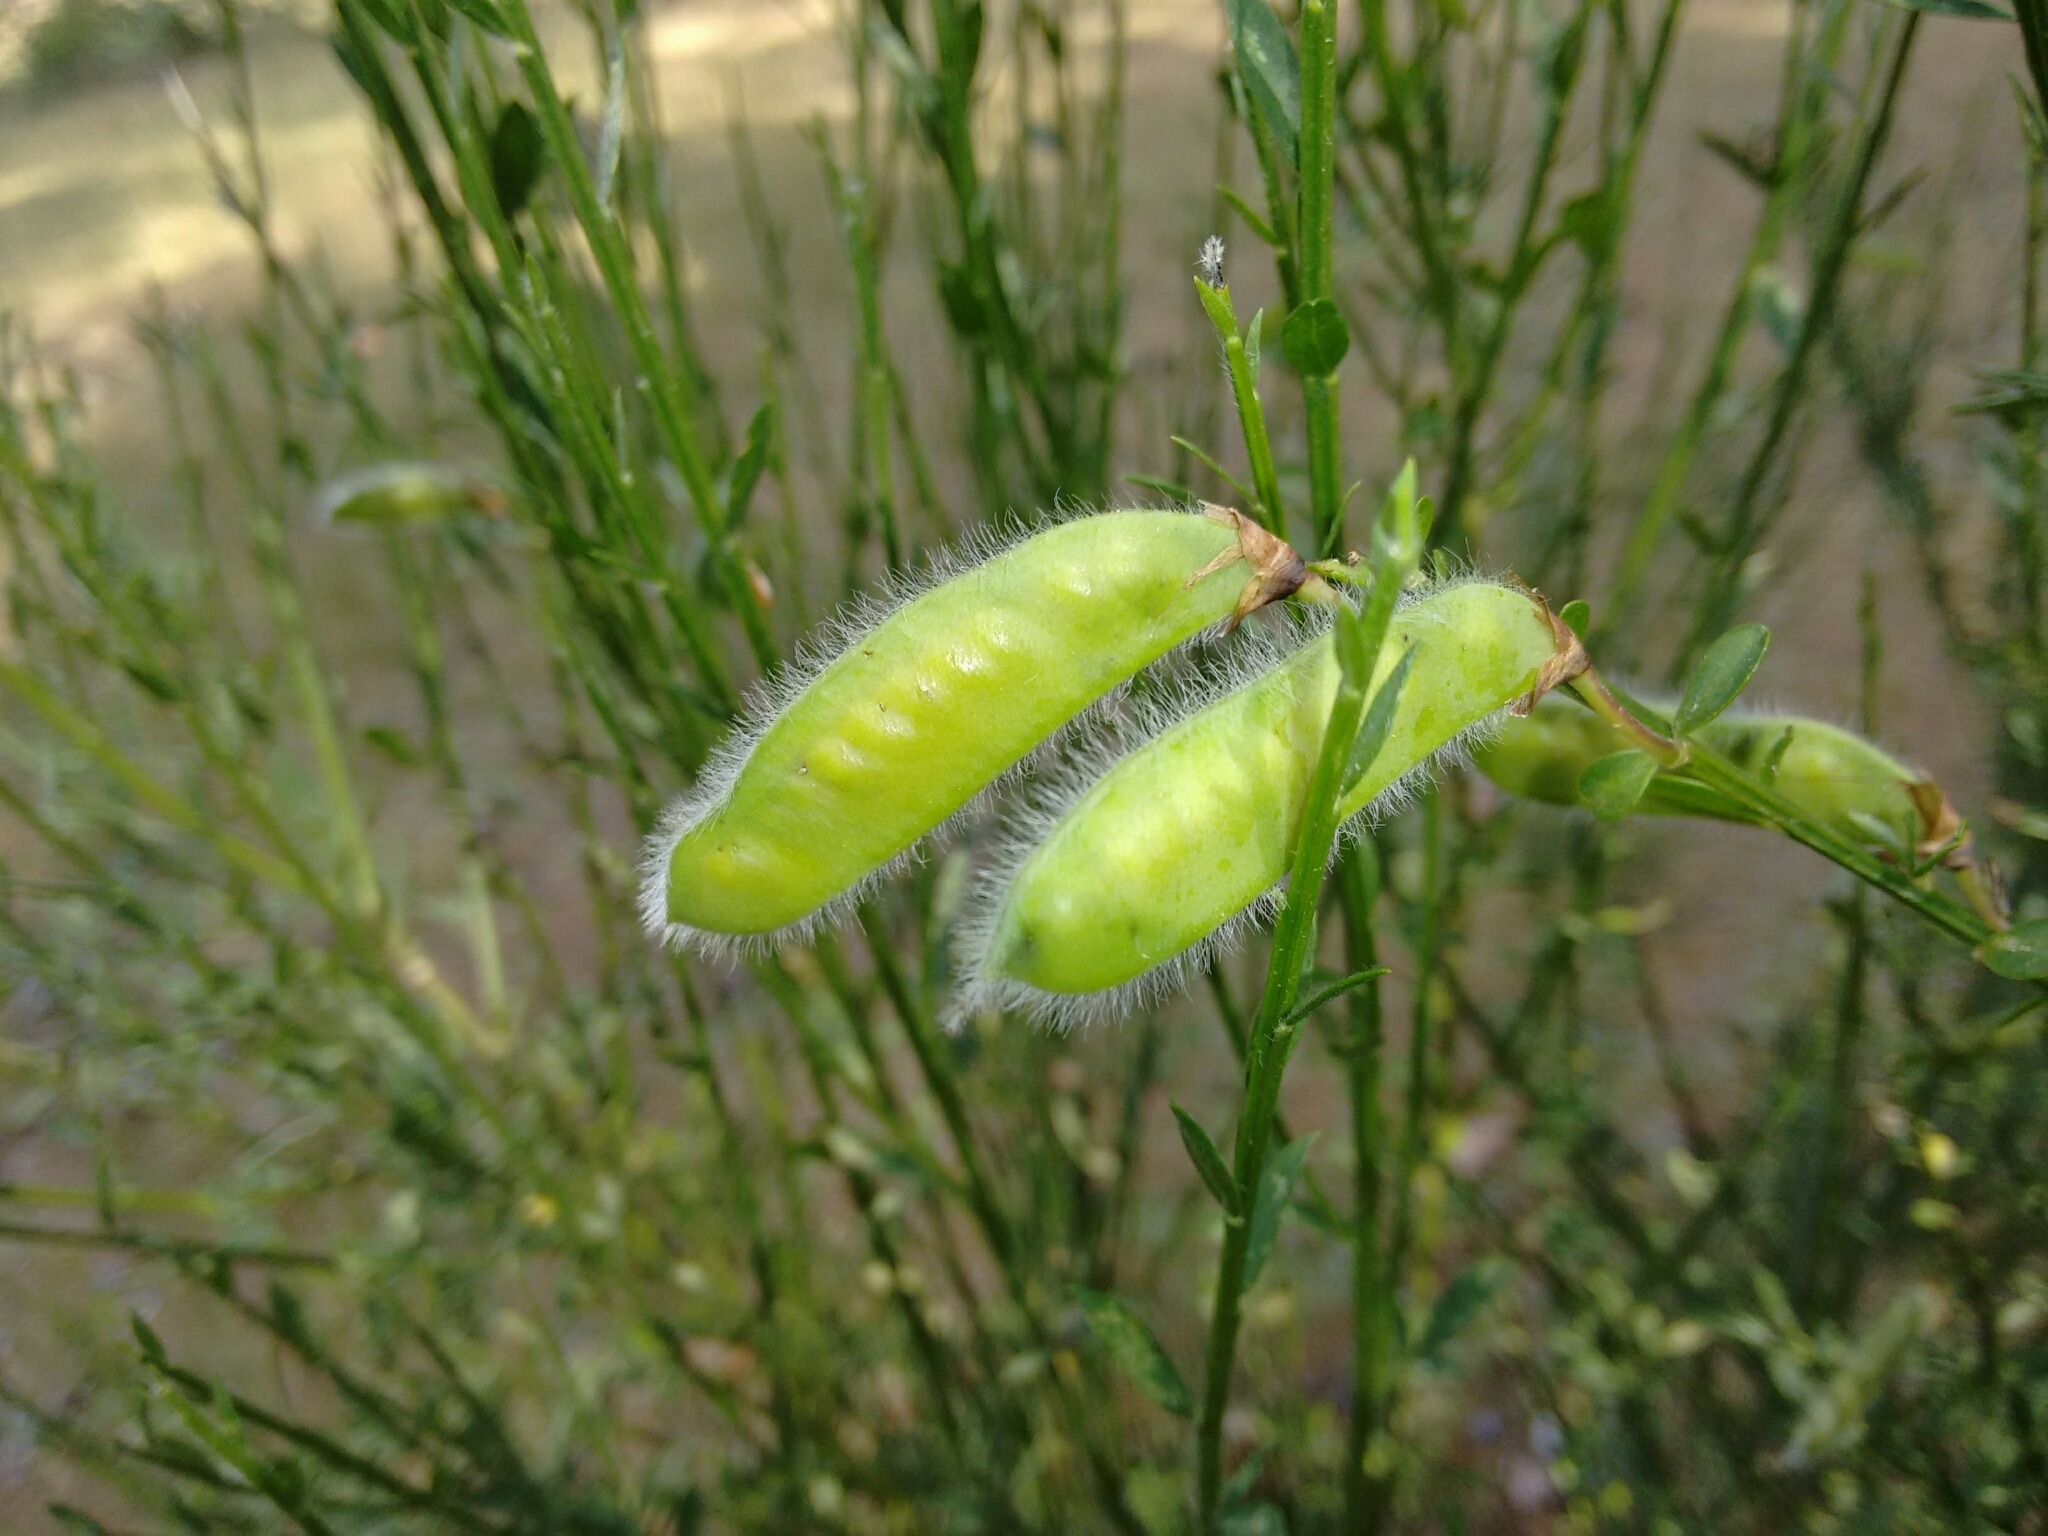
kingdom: Plantae
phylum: Tracheophyta
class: Magnoliopsida
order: Fabales
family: Fabaceae
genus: Cytisus
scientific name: Cytisus scoparius
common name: Scotch broom
